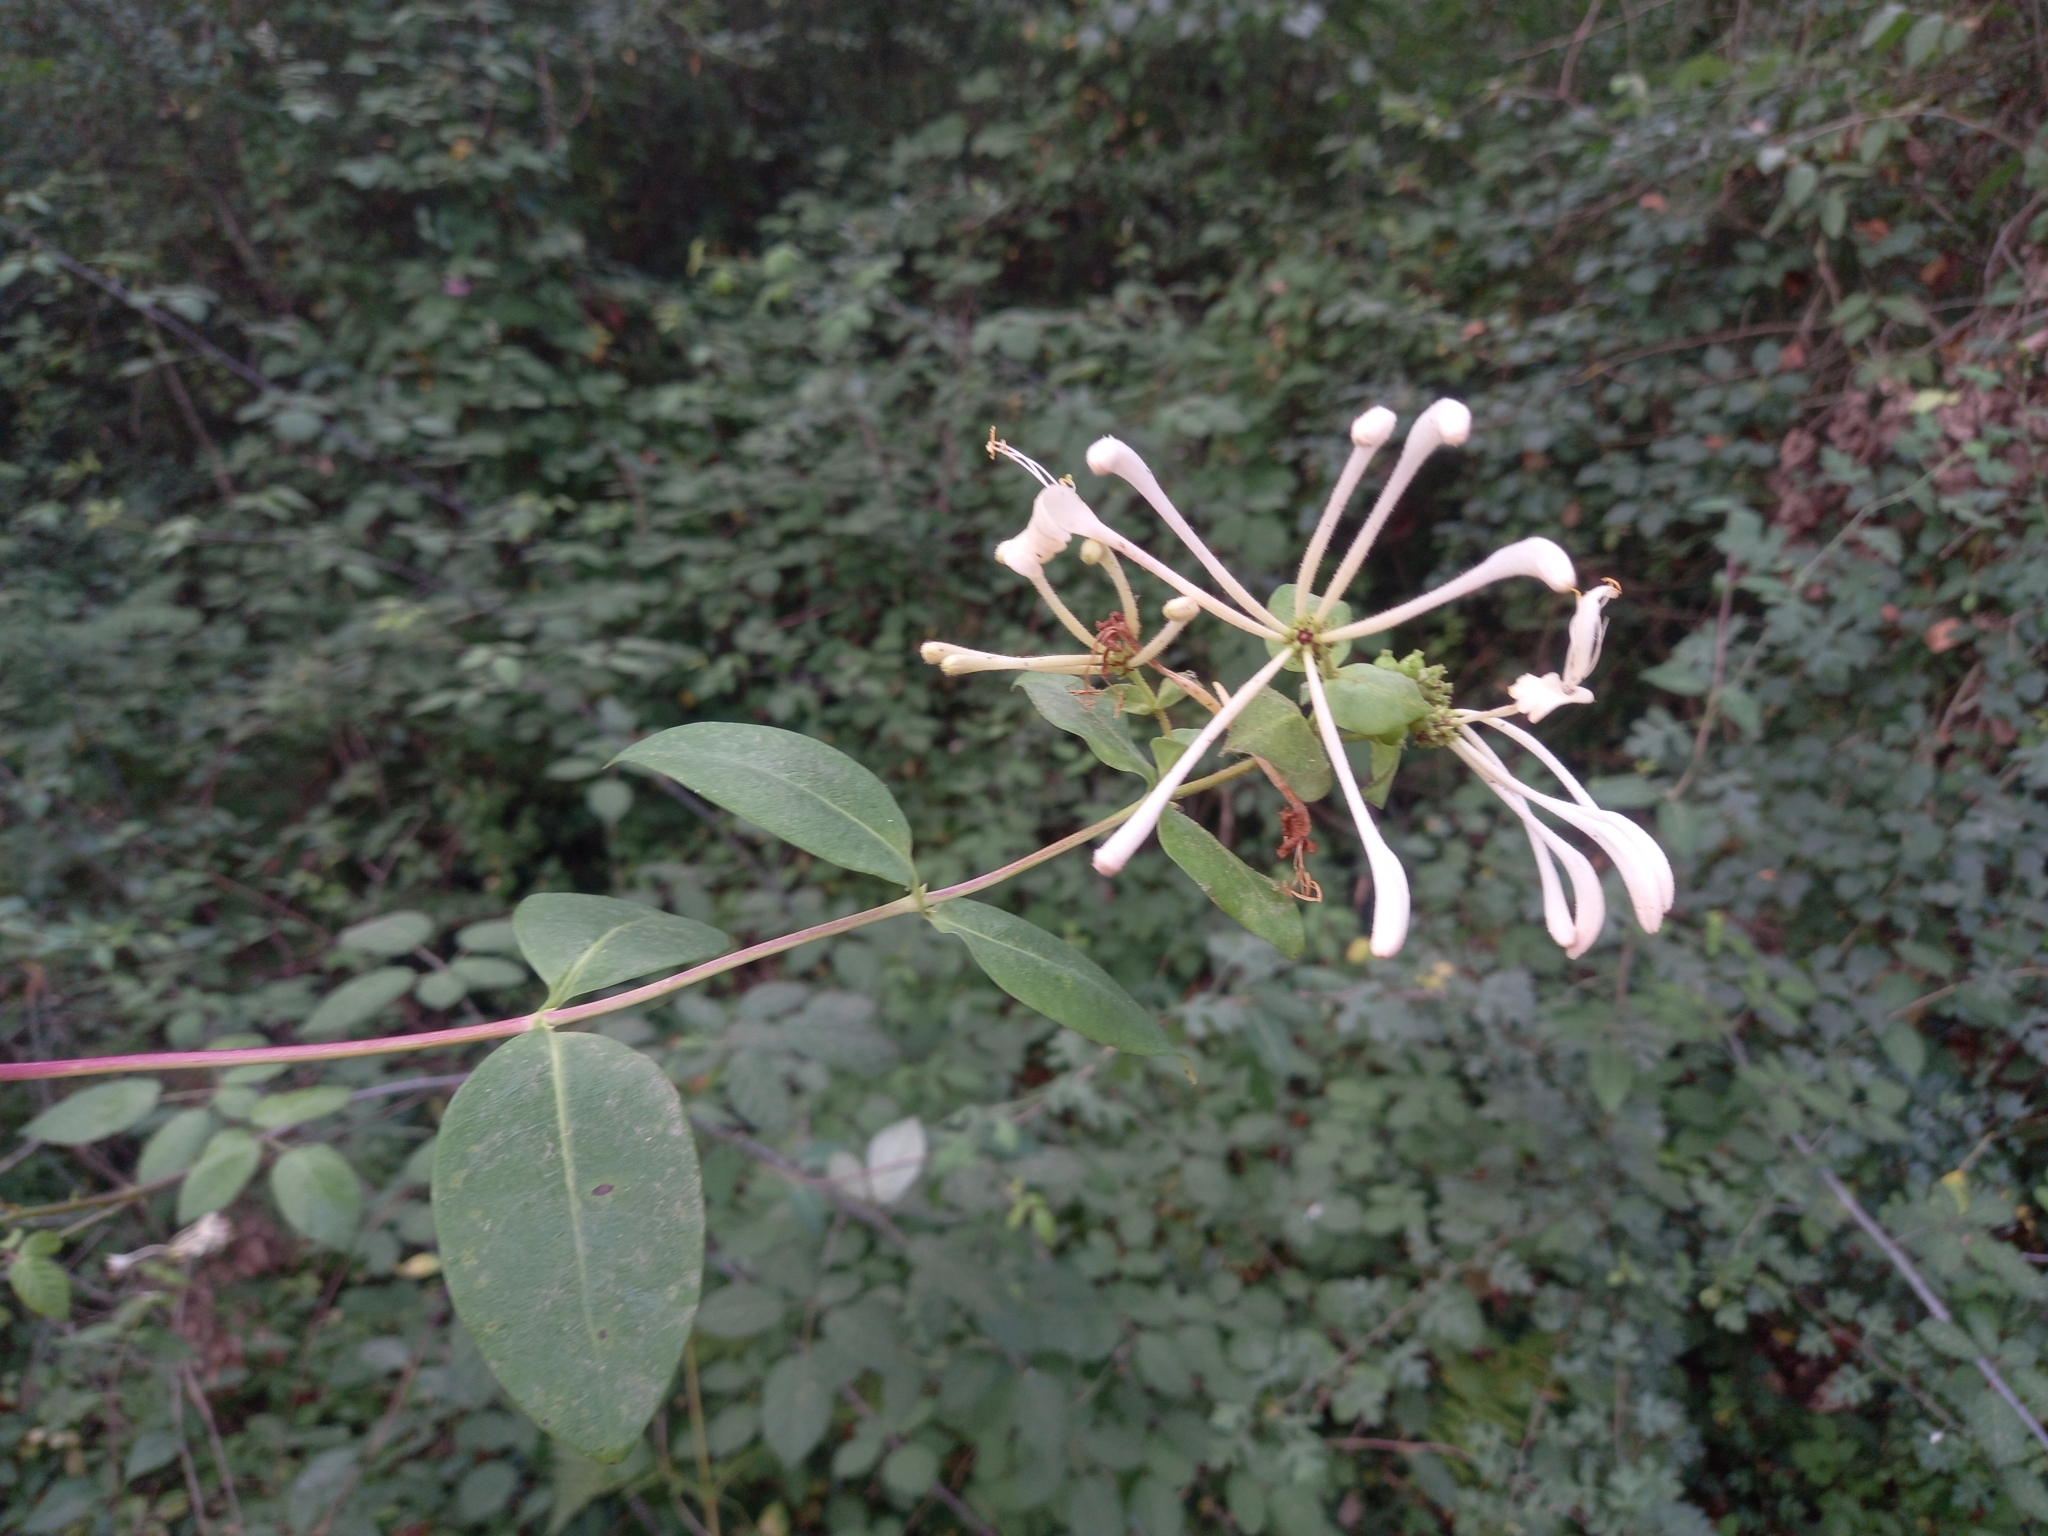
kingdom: Plantae
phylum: Tracheophyta
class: Magnoliopsida
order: Dipsacales
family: Caprifoliaceae
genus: Lonicera
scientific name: Lonicera periclymenum
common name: European honeysuckle
